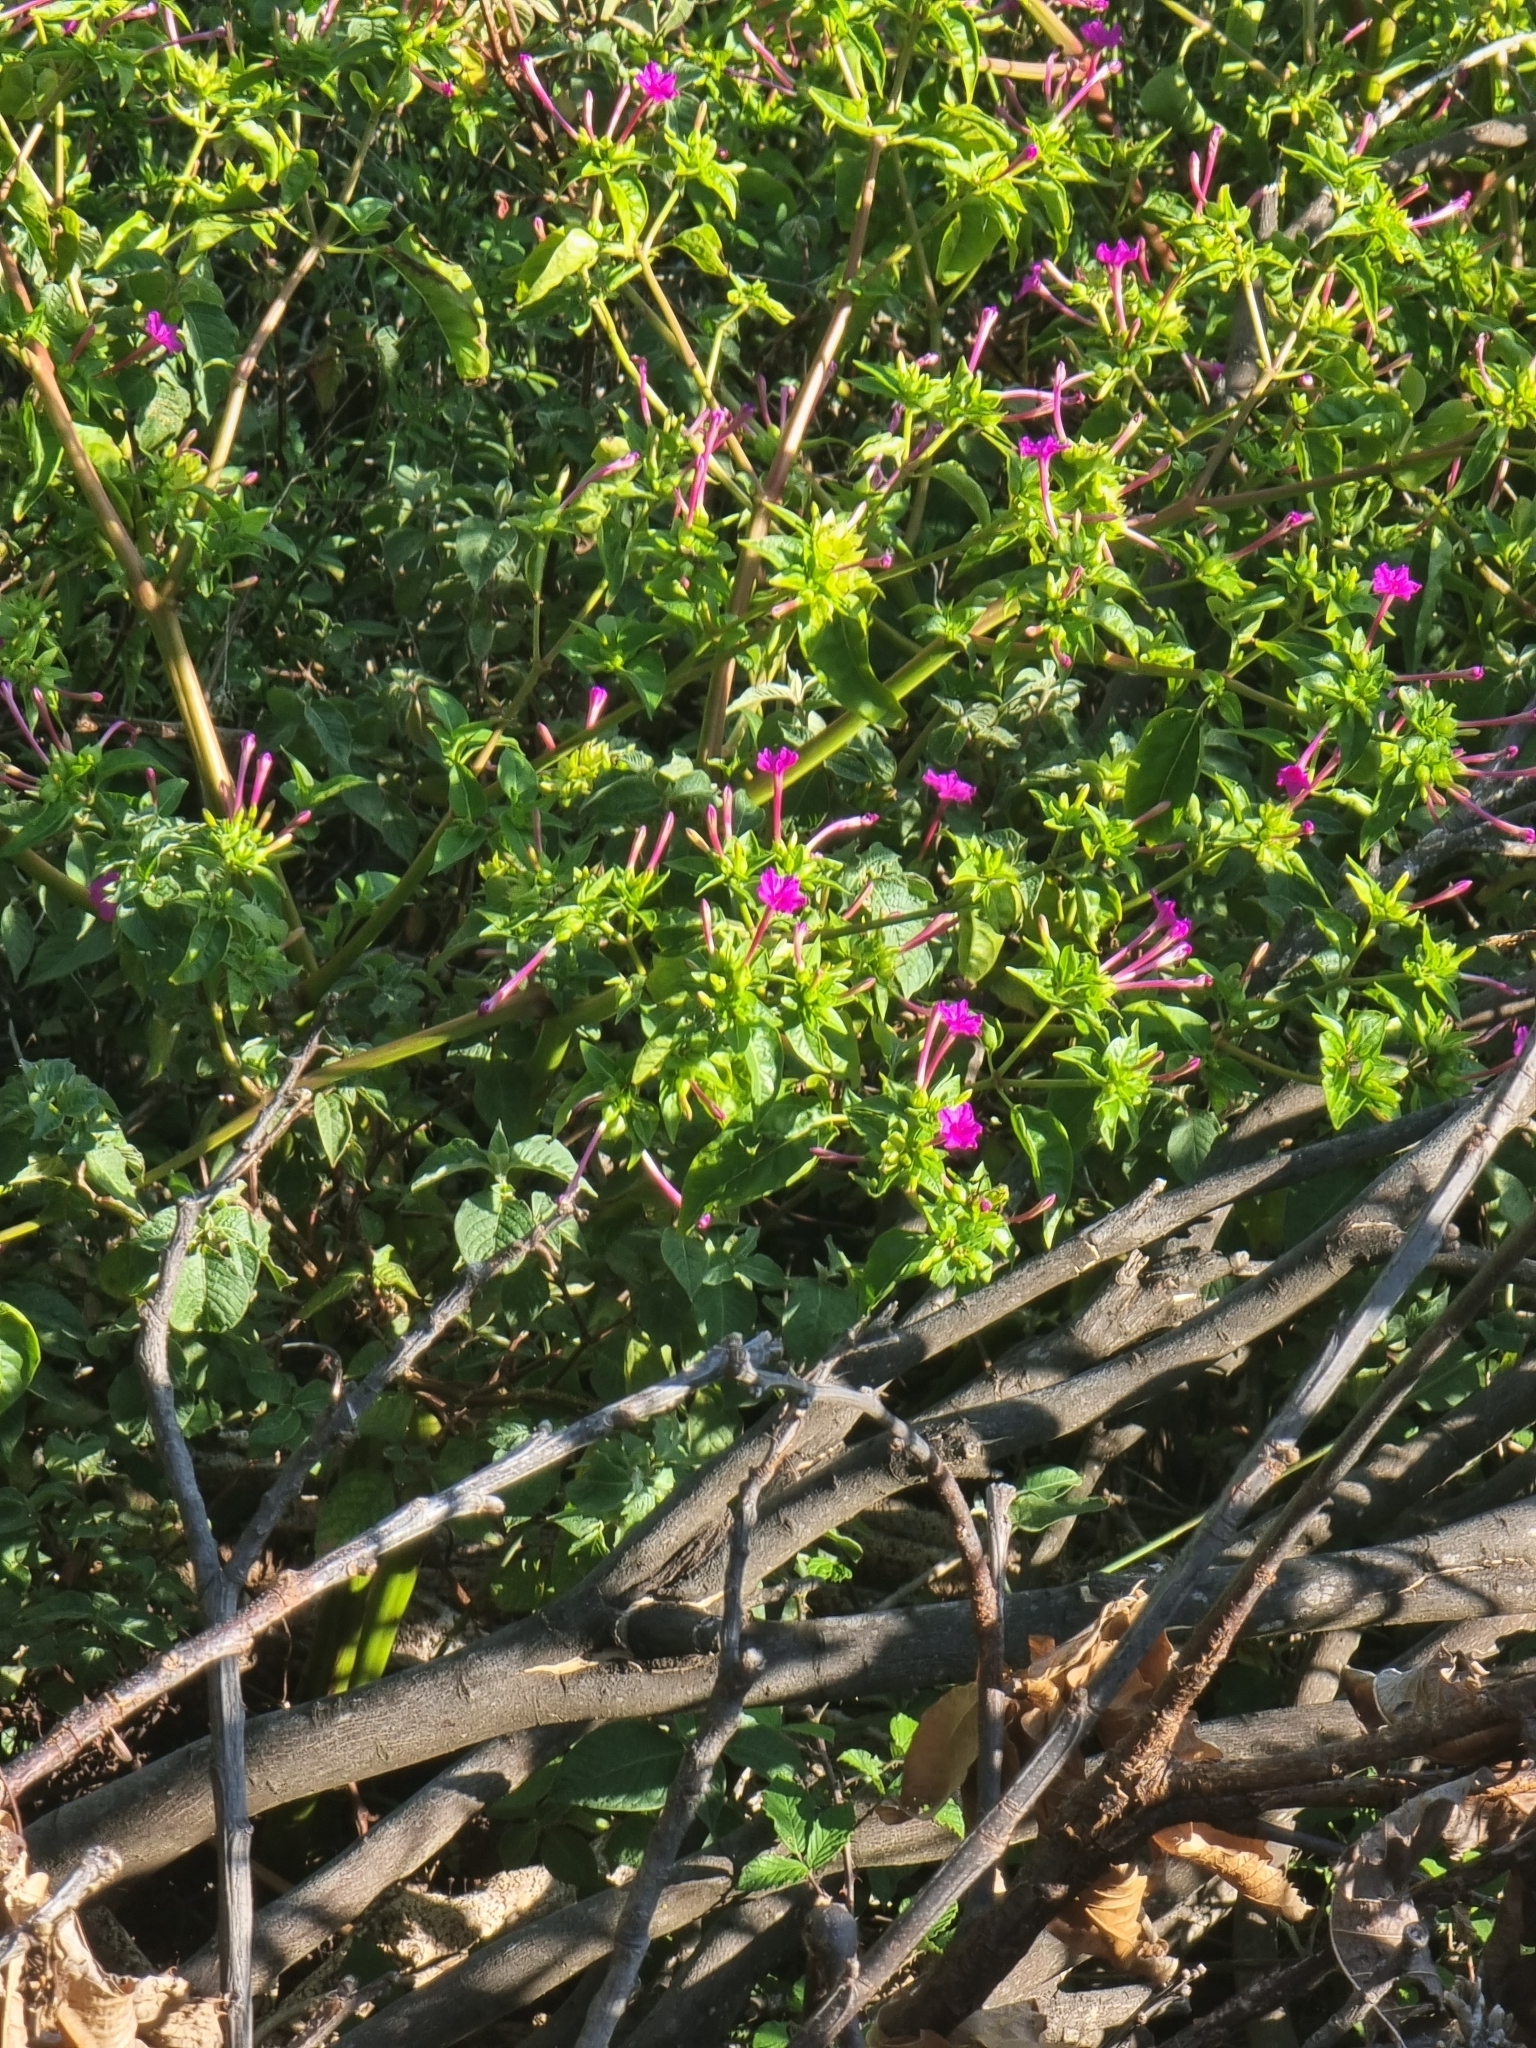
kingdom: Plantae
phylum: Tracheophyta
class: Magnoliopsida
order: Caryophyllales
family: Nyctaginaceae
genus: Mirabilis
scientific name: Mirabilis jalapa
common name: Marvel-of-peru
